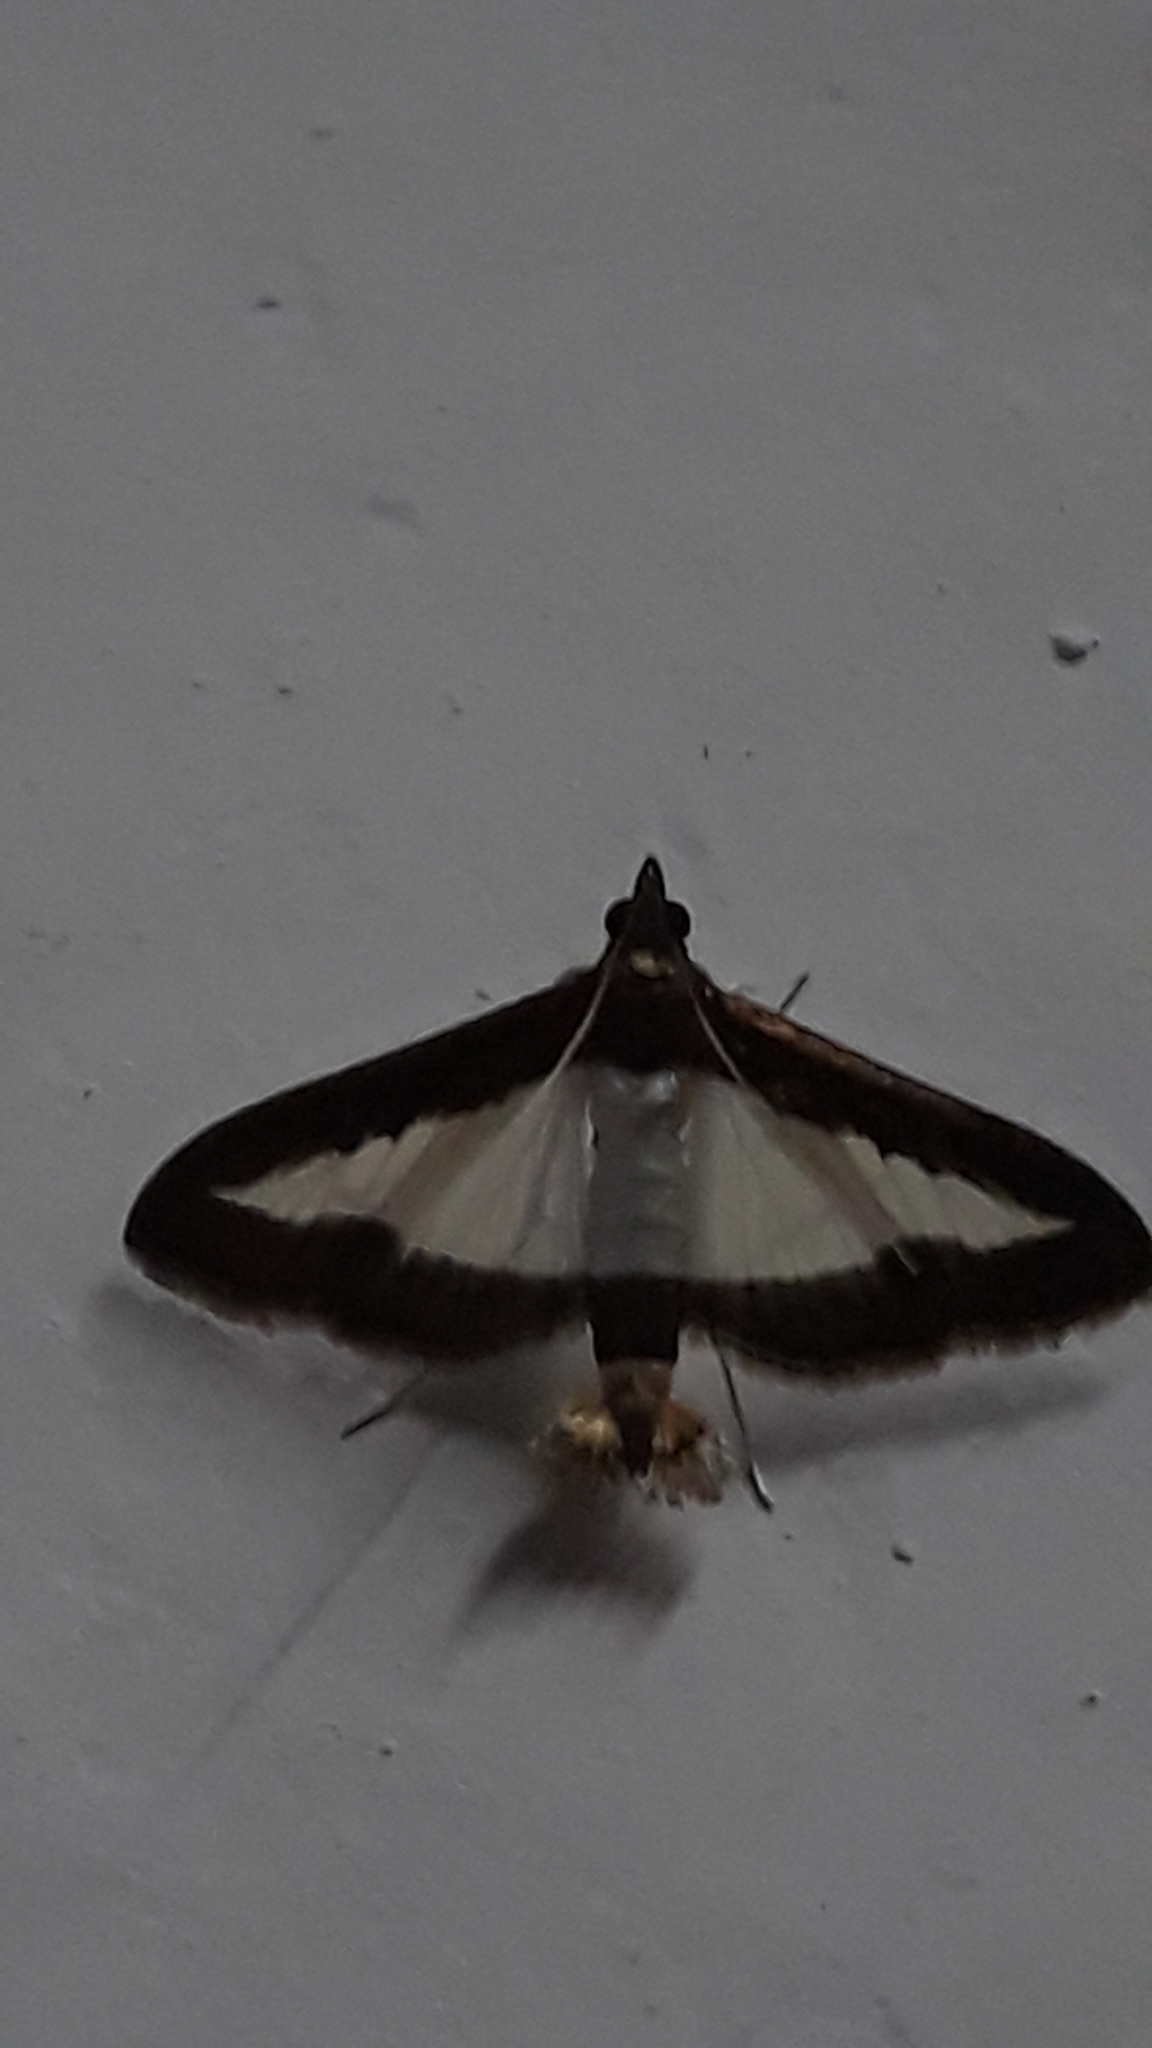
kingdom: Animalia
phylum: Arthropoda
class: Insecta
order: Lepidoptera
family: Crambidae
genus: Diaphania
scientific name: Diaphania indica
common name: Cucumber moth
